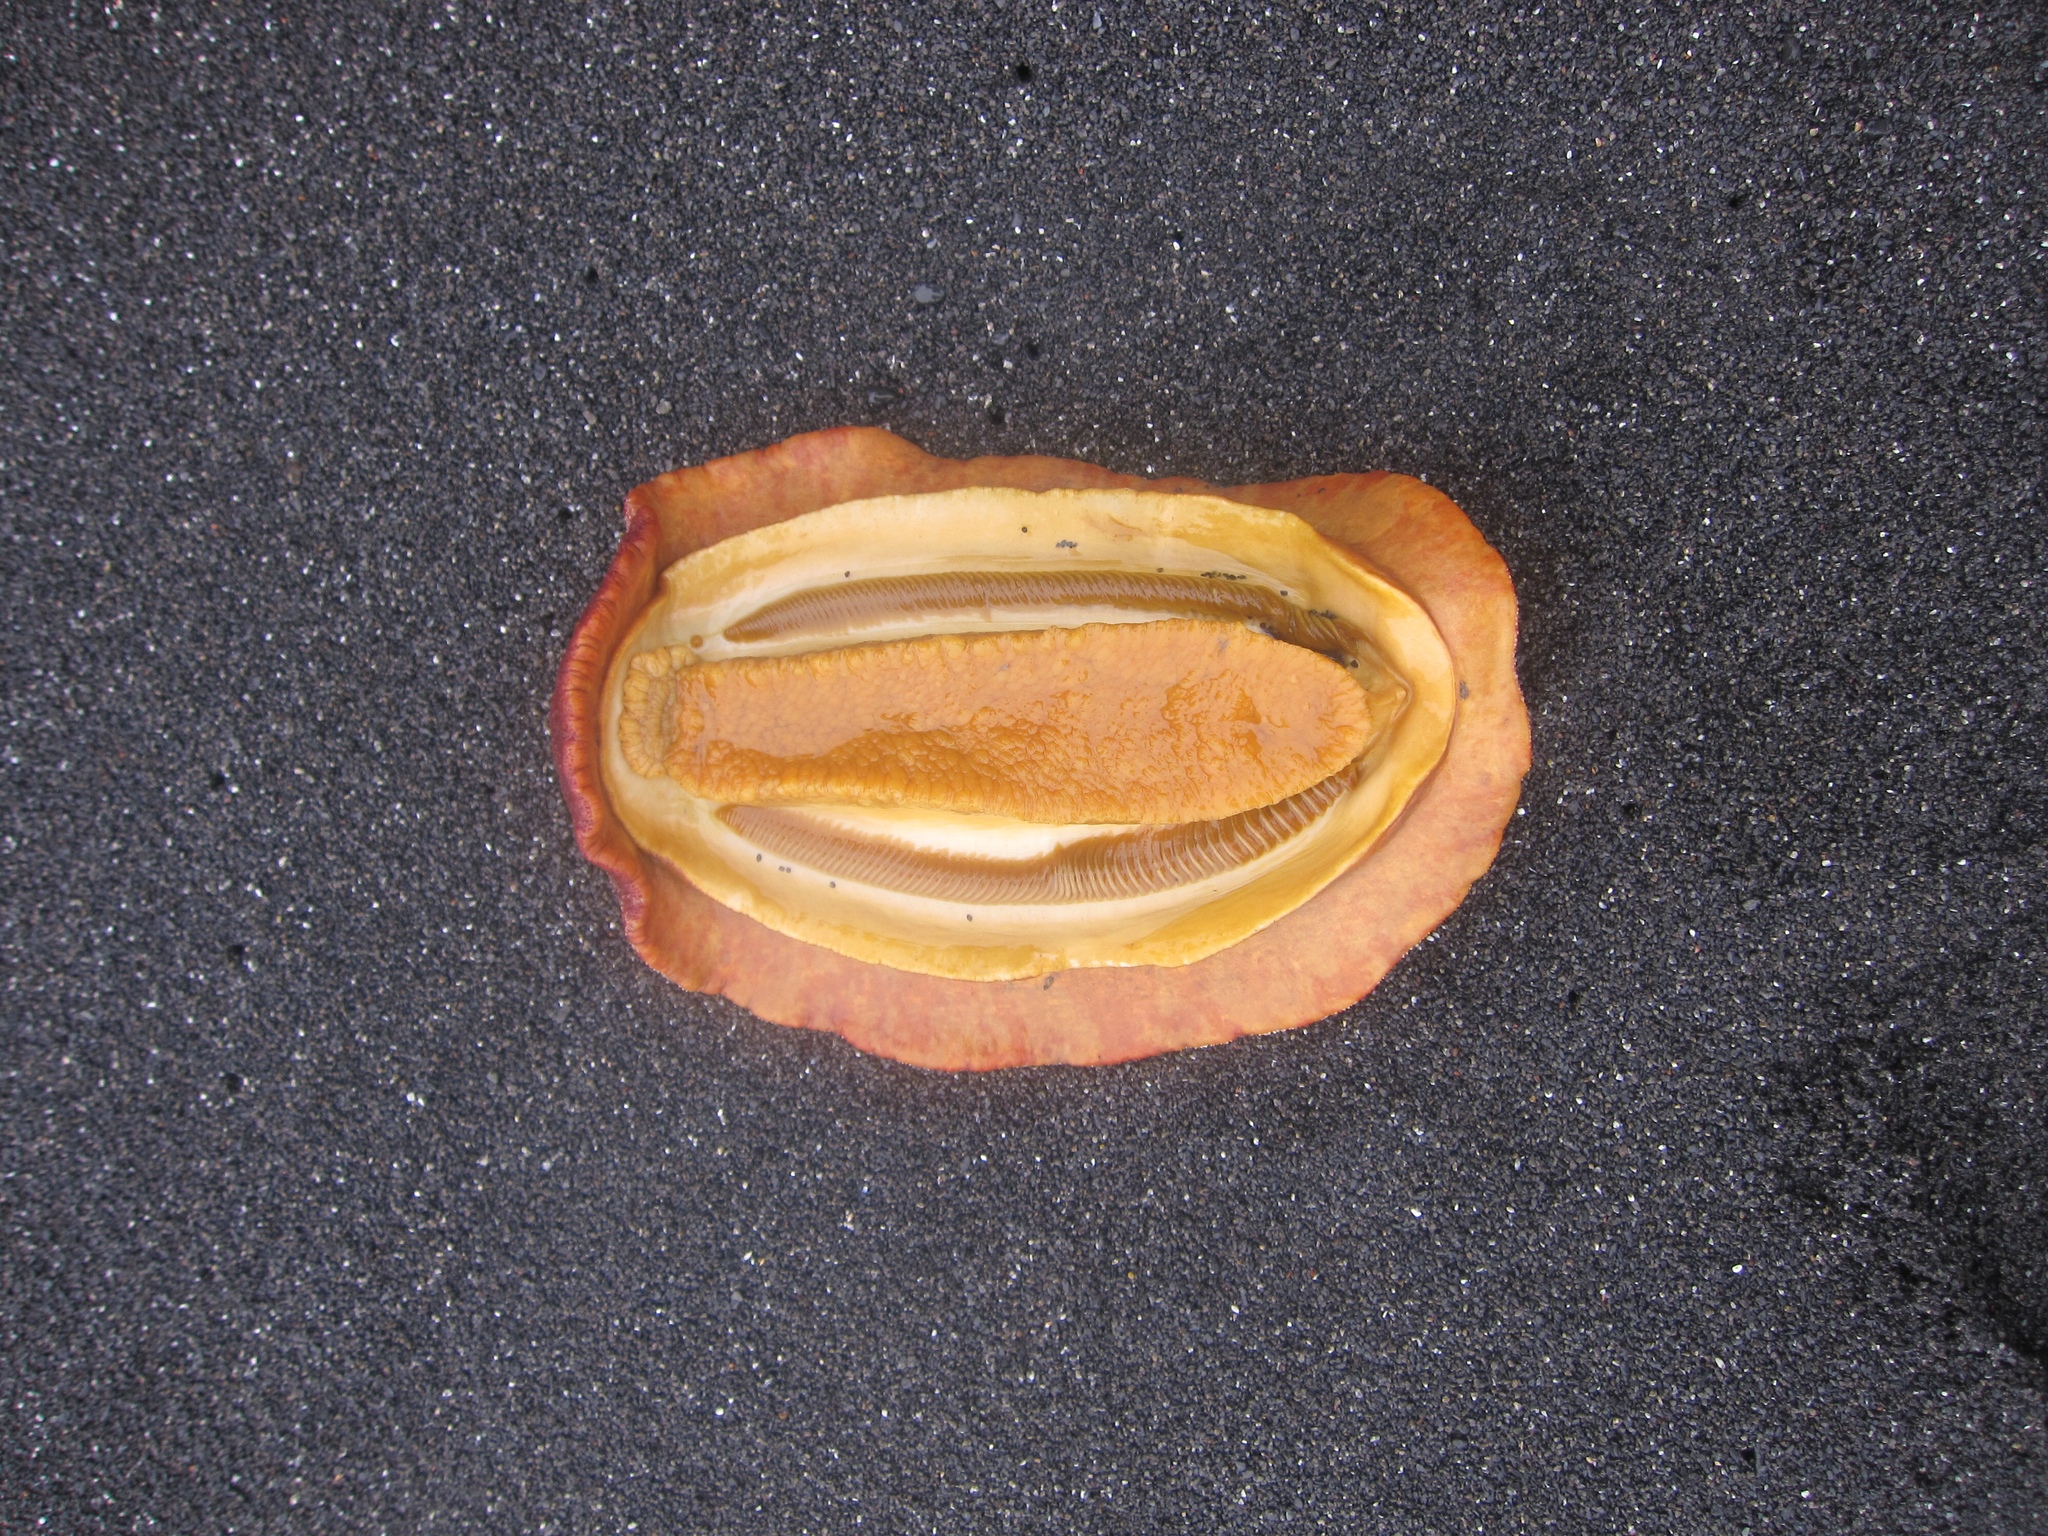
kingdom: Animalia
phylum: Mollusca
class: Polyplacophora
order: Chitonida
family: Acanthochitonidae
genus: Cryptochiton
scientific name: Cryptochiton stelleri
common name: Giant pacific chiton
